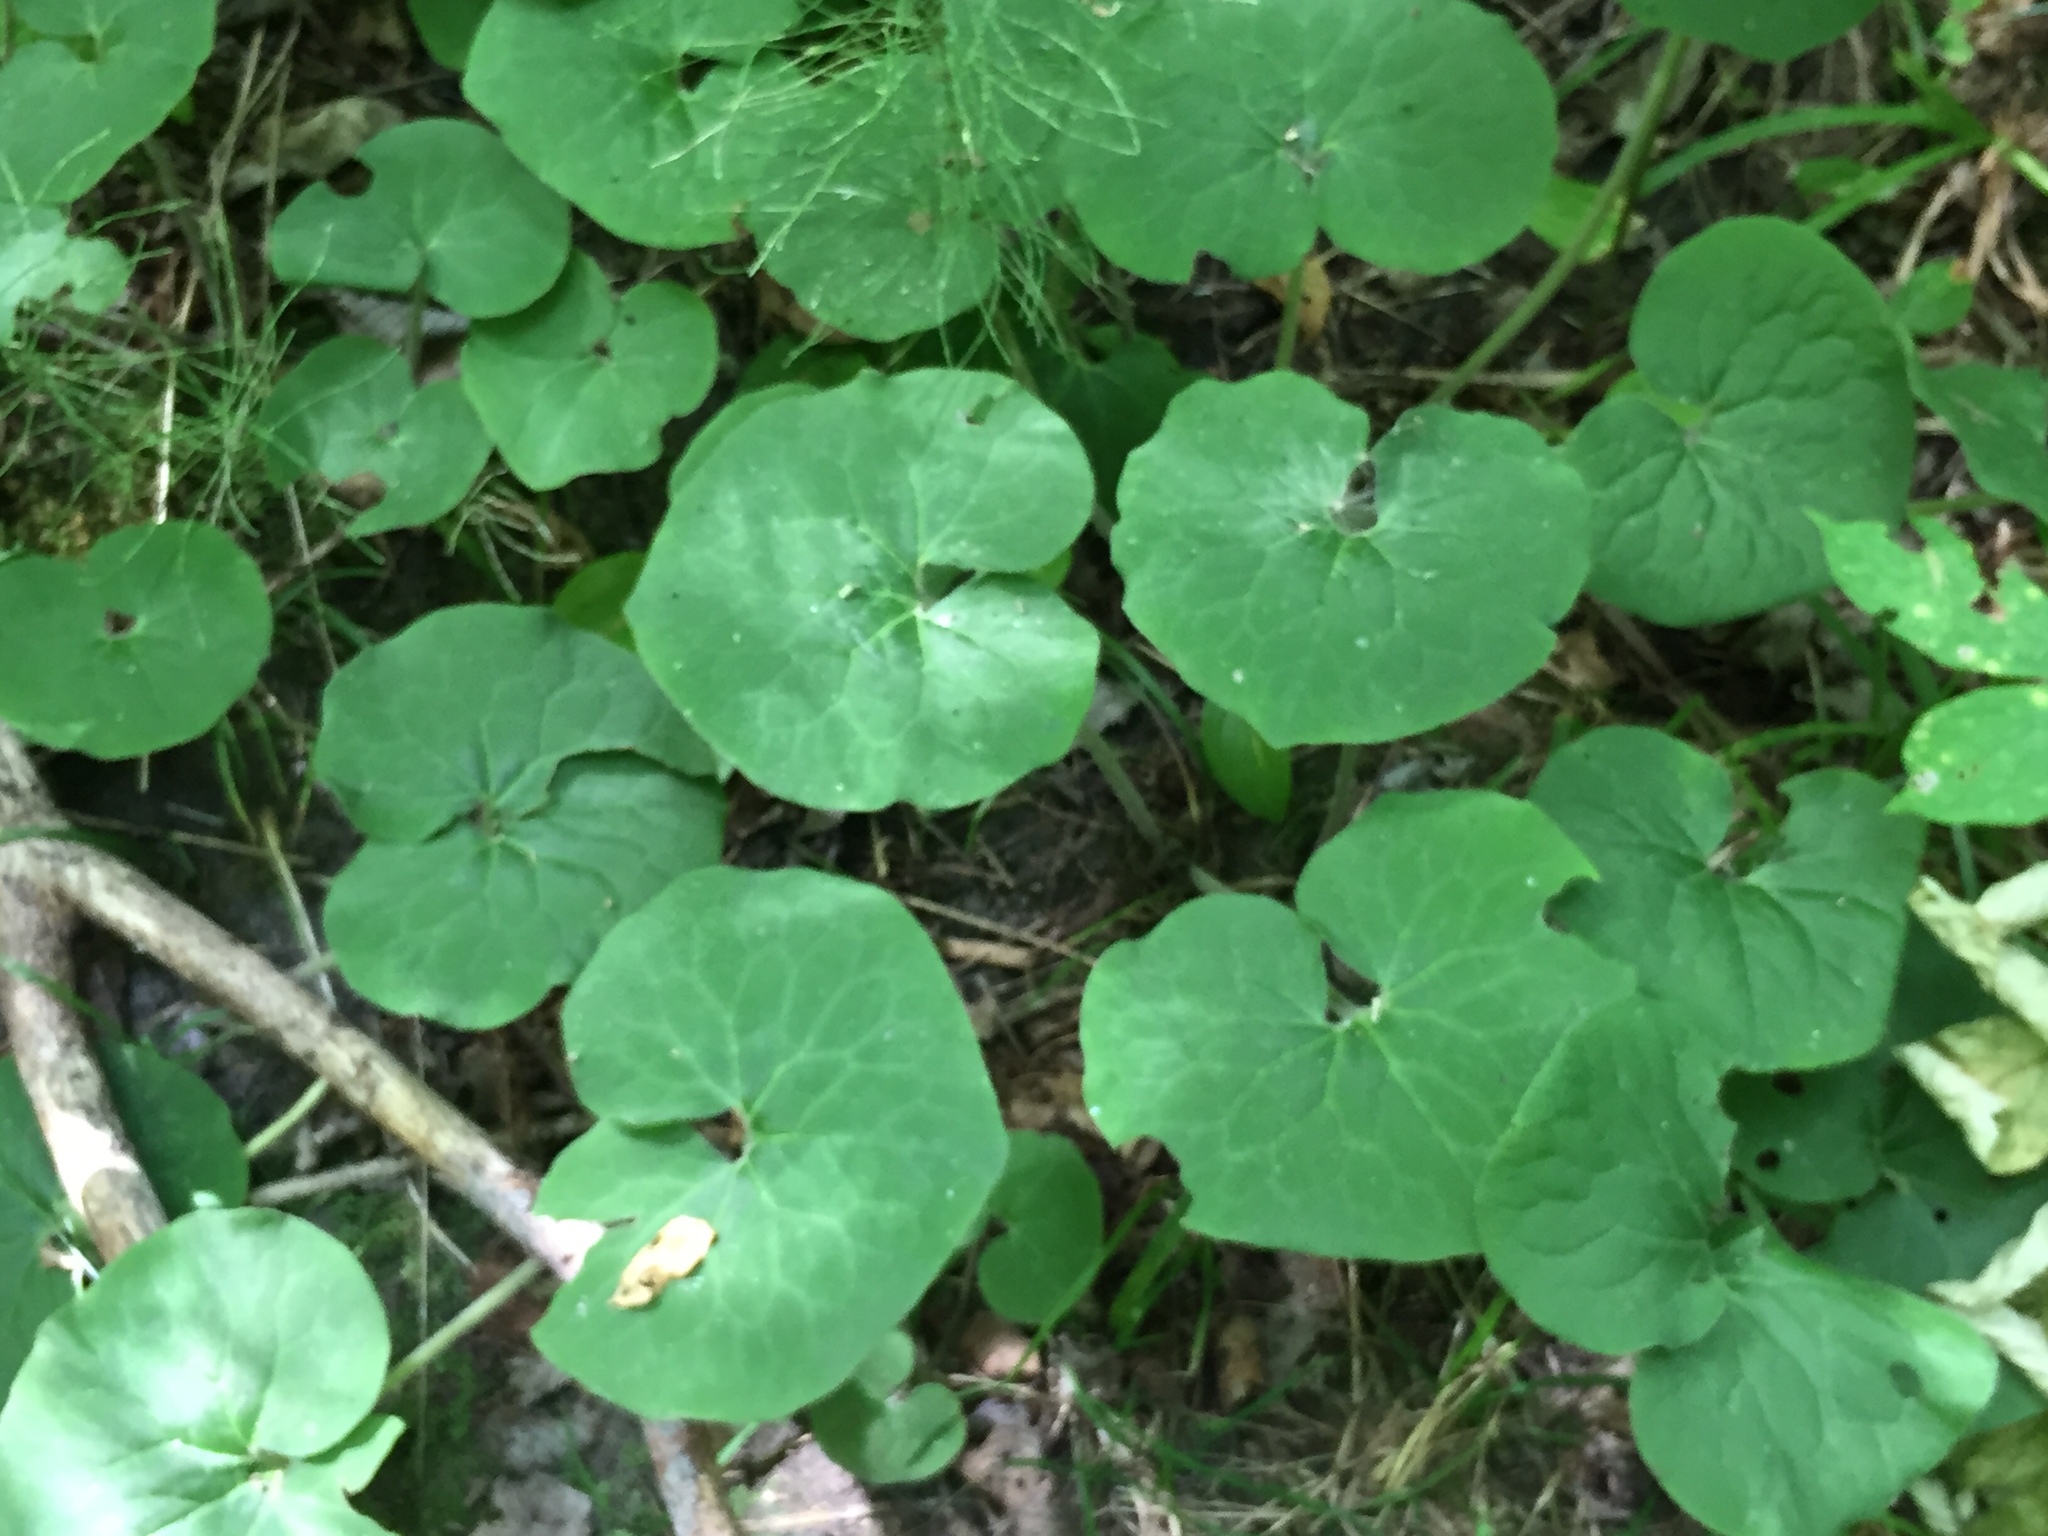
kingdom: Plantae
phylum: Tracheophyta
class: Magnoliopsida
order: Piperales
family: Aristolochiaceae
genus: Asarum
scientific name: Asarum canadense
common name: Wild ginger
